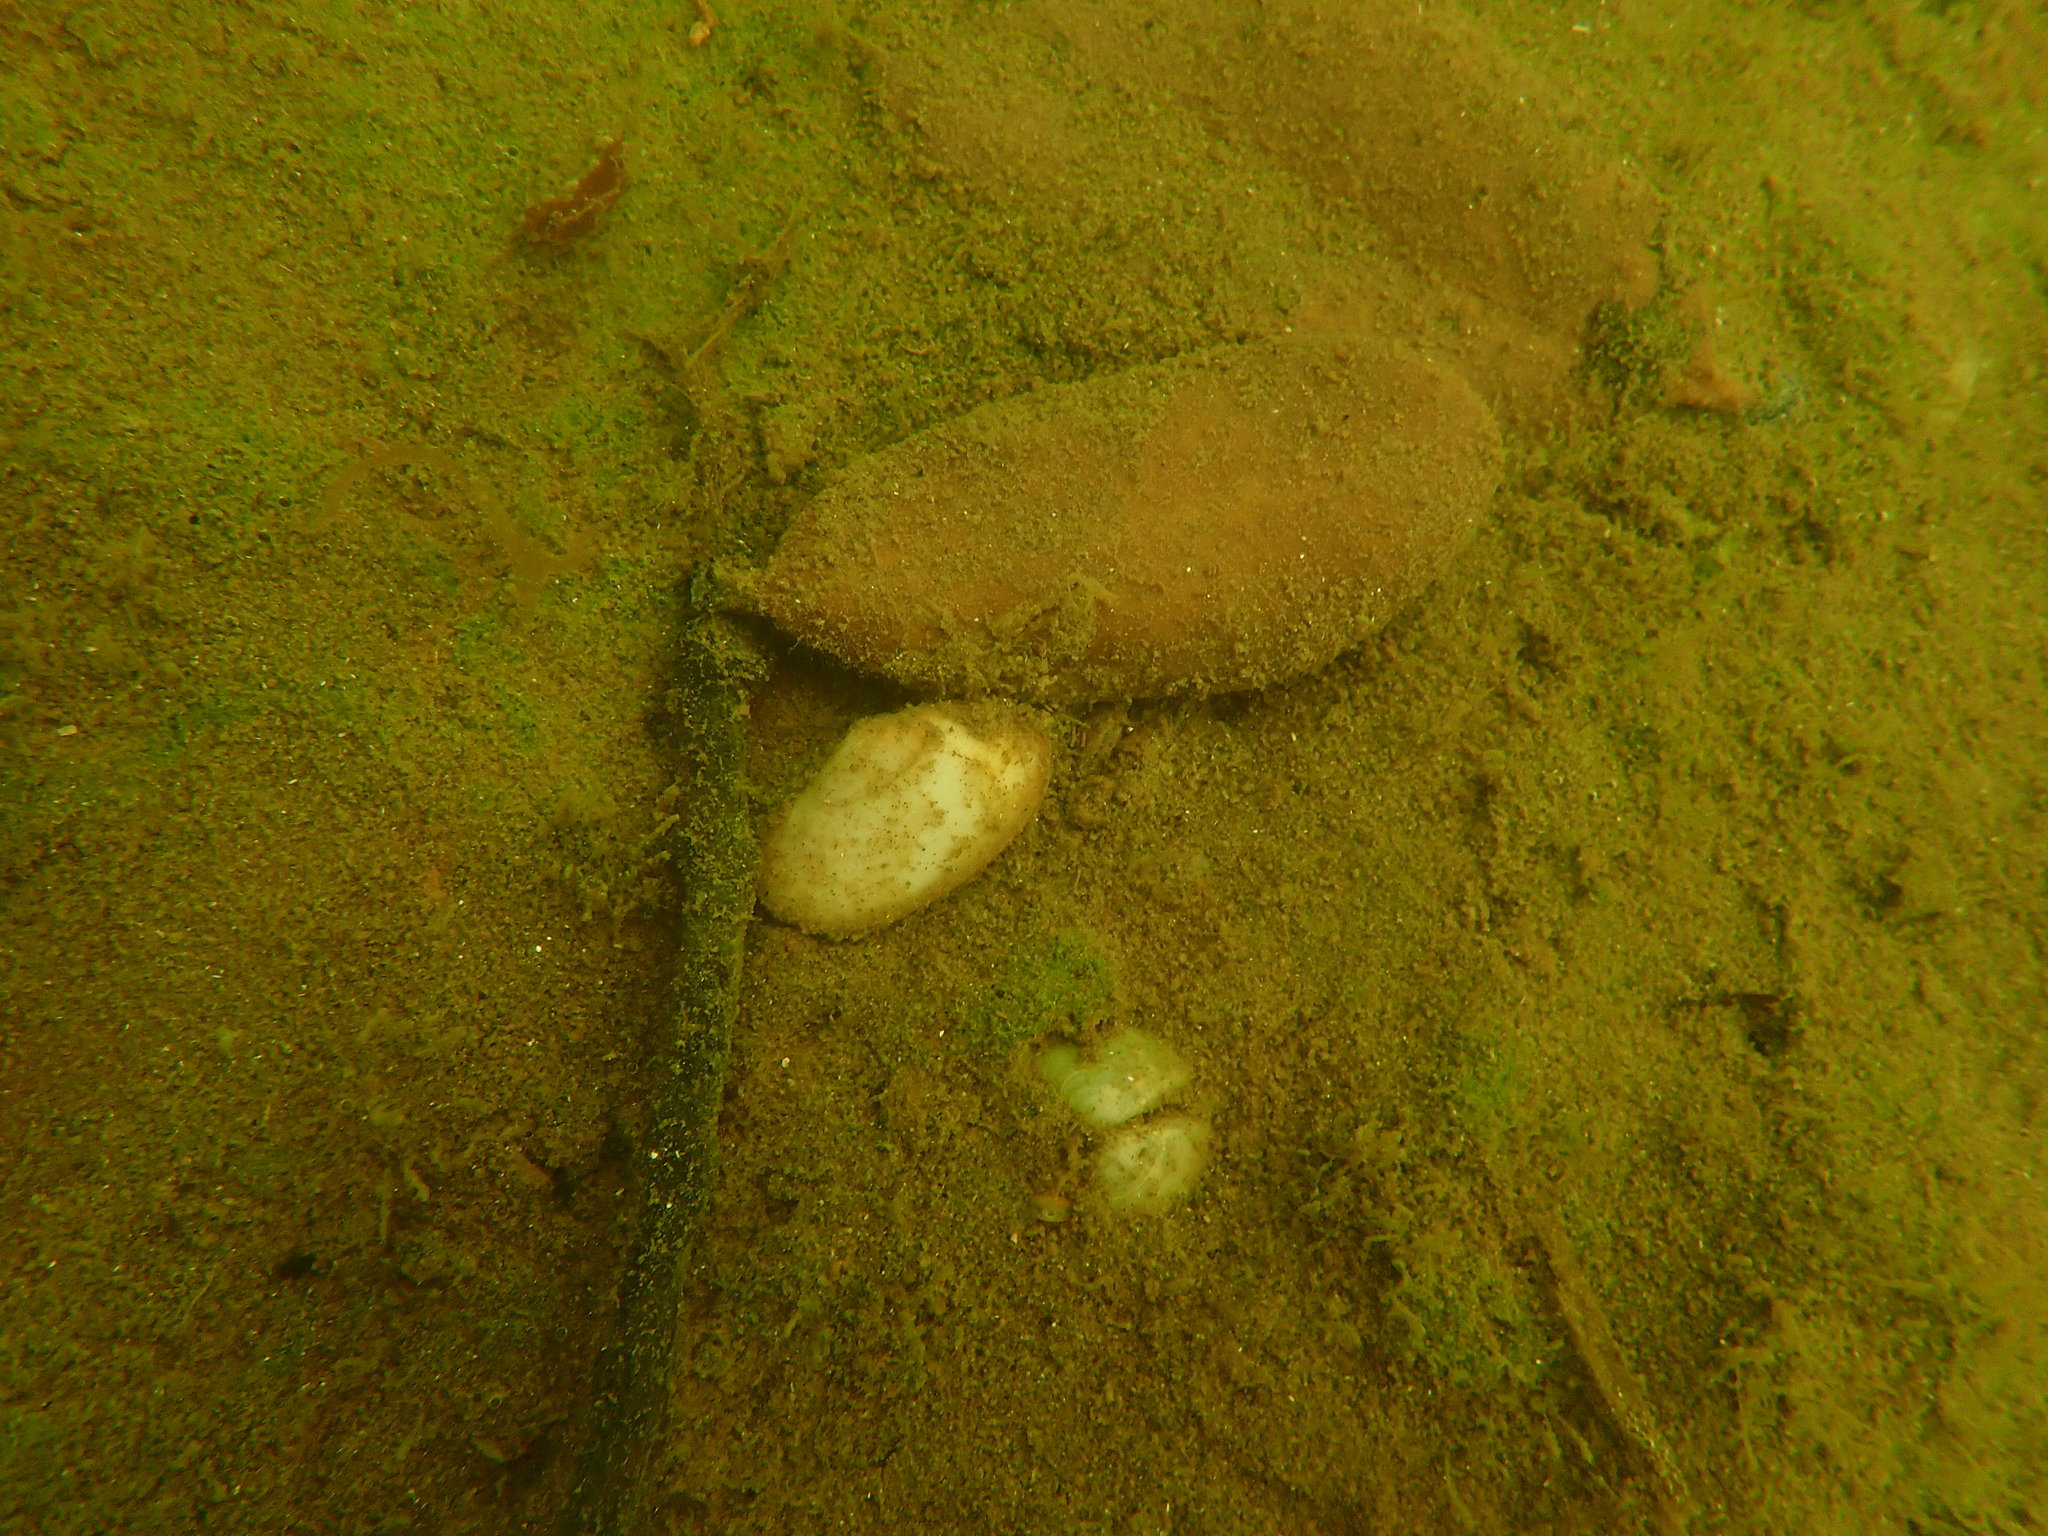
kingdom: Animalia
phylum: Mollusca
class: Bivalvia
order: Venerida
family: Mesodesmatidae
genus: Paphies
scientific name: Paphies australis
